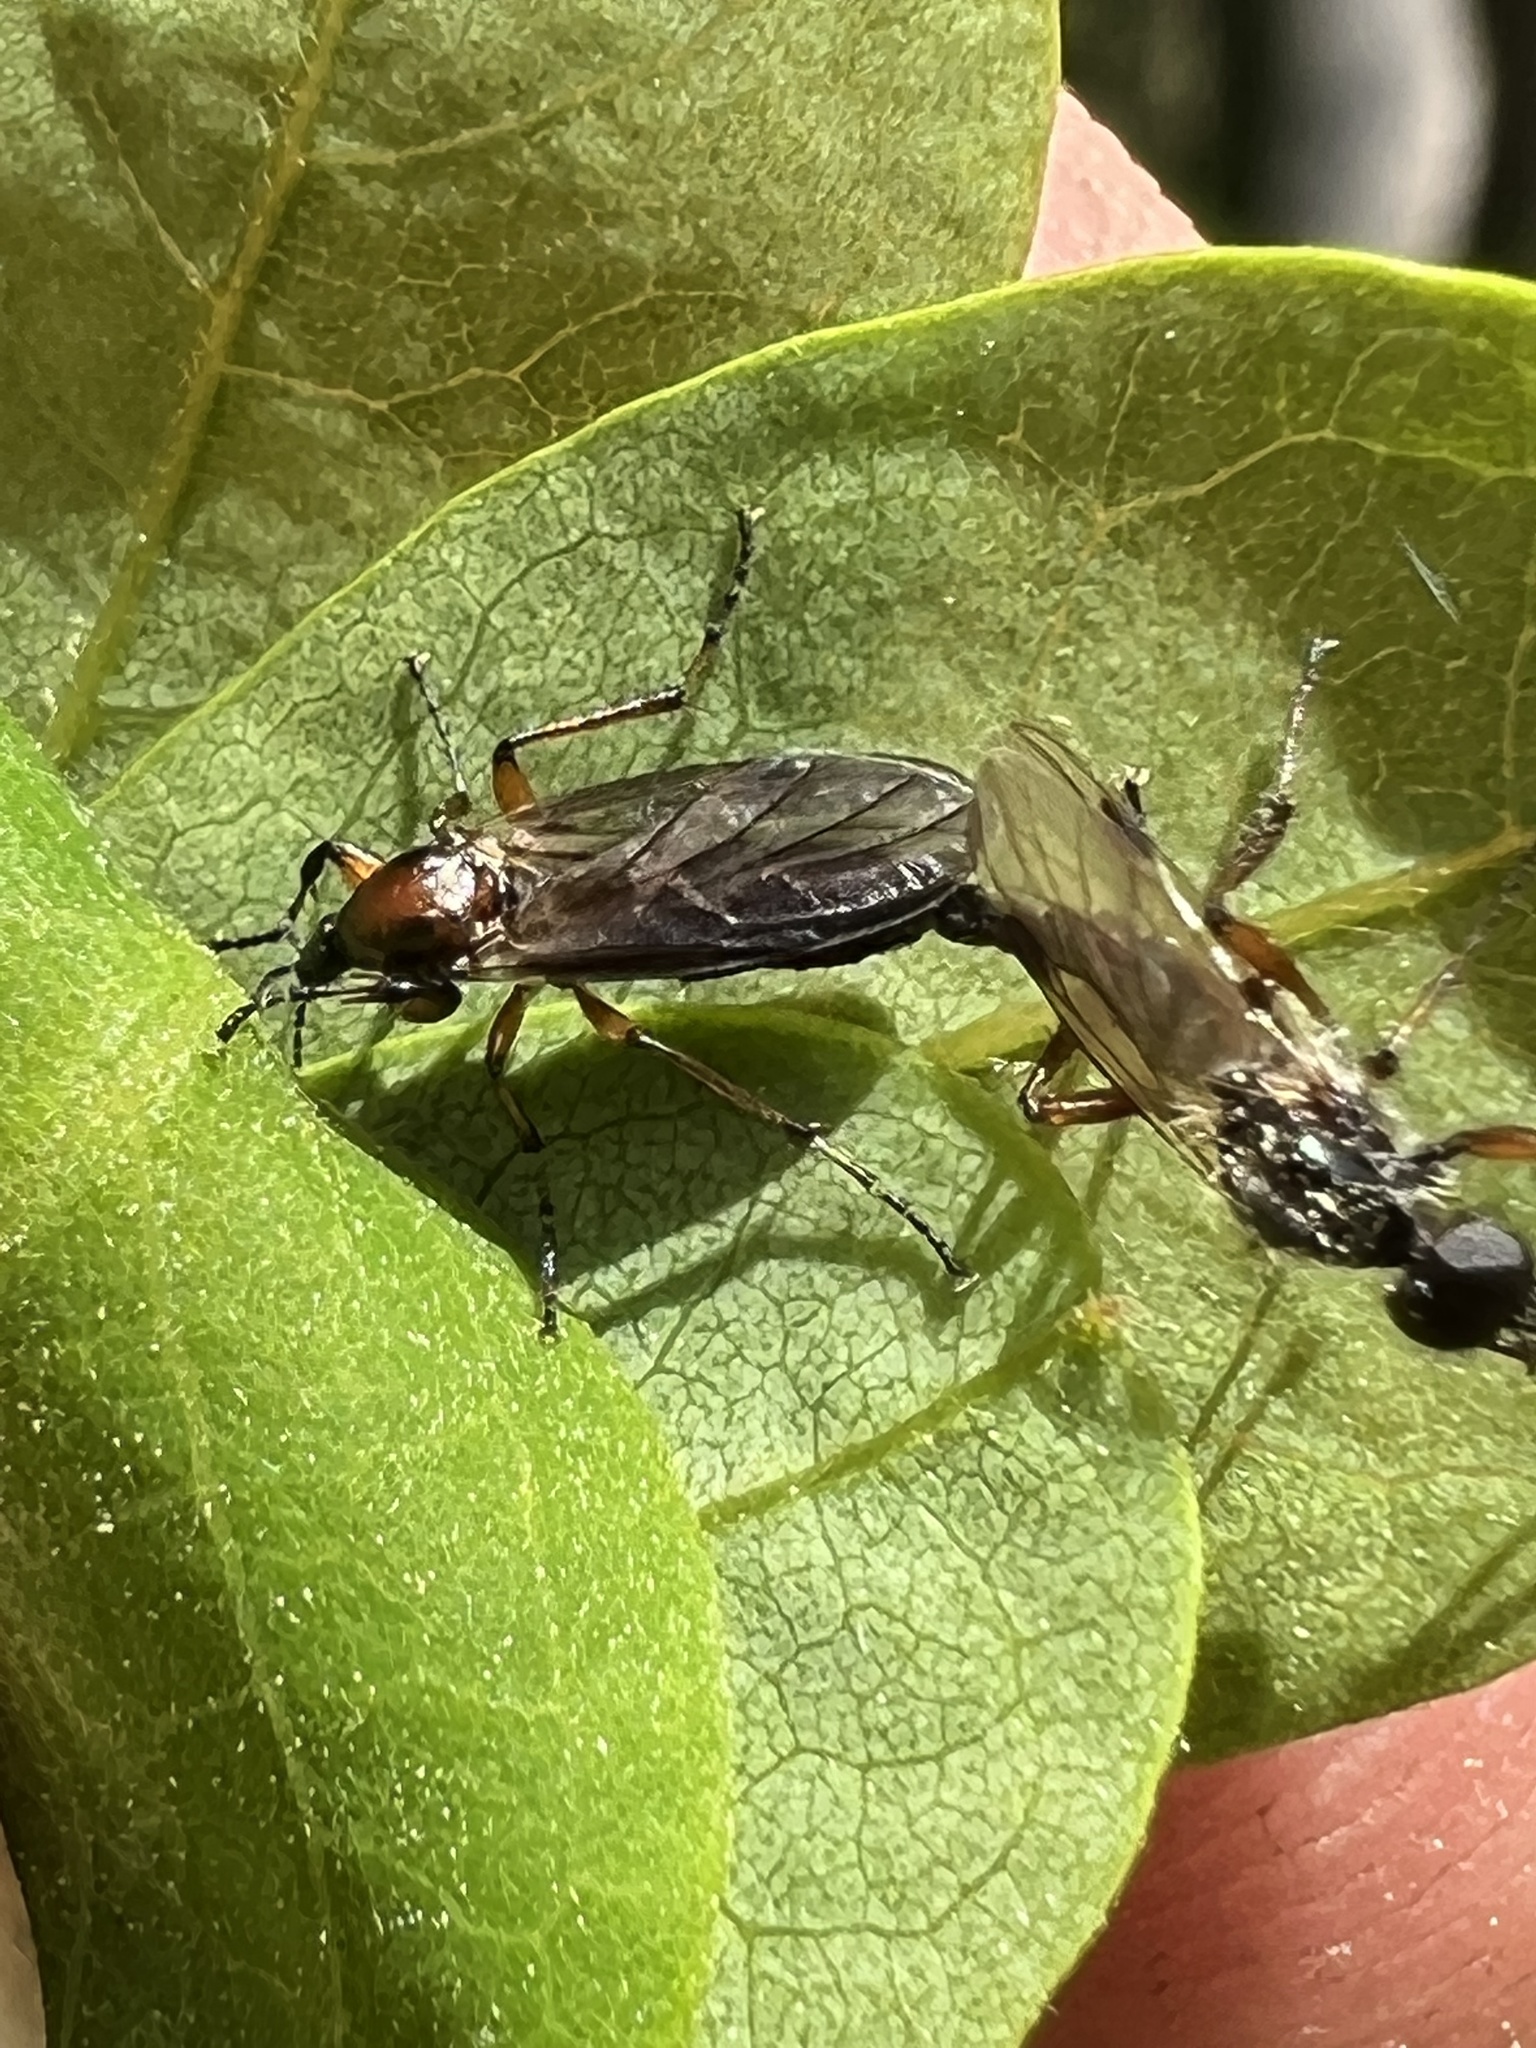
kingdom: Animalia
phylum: Arthropoda
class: Insecta
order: Diptera
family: Bibionidae
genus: Bibio
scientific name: Bibio articulatus
